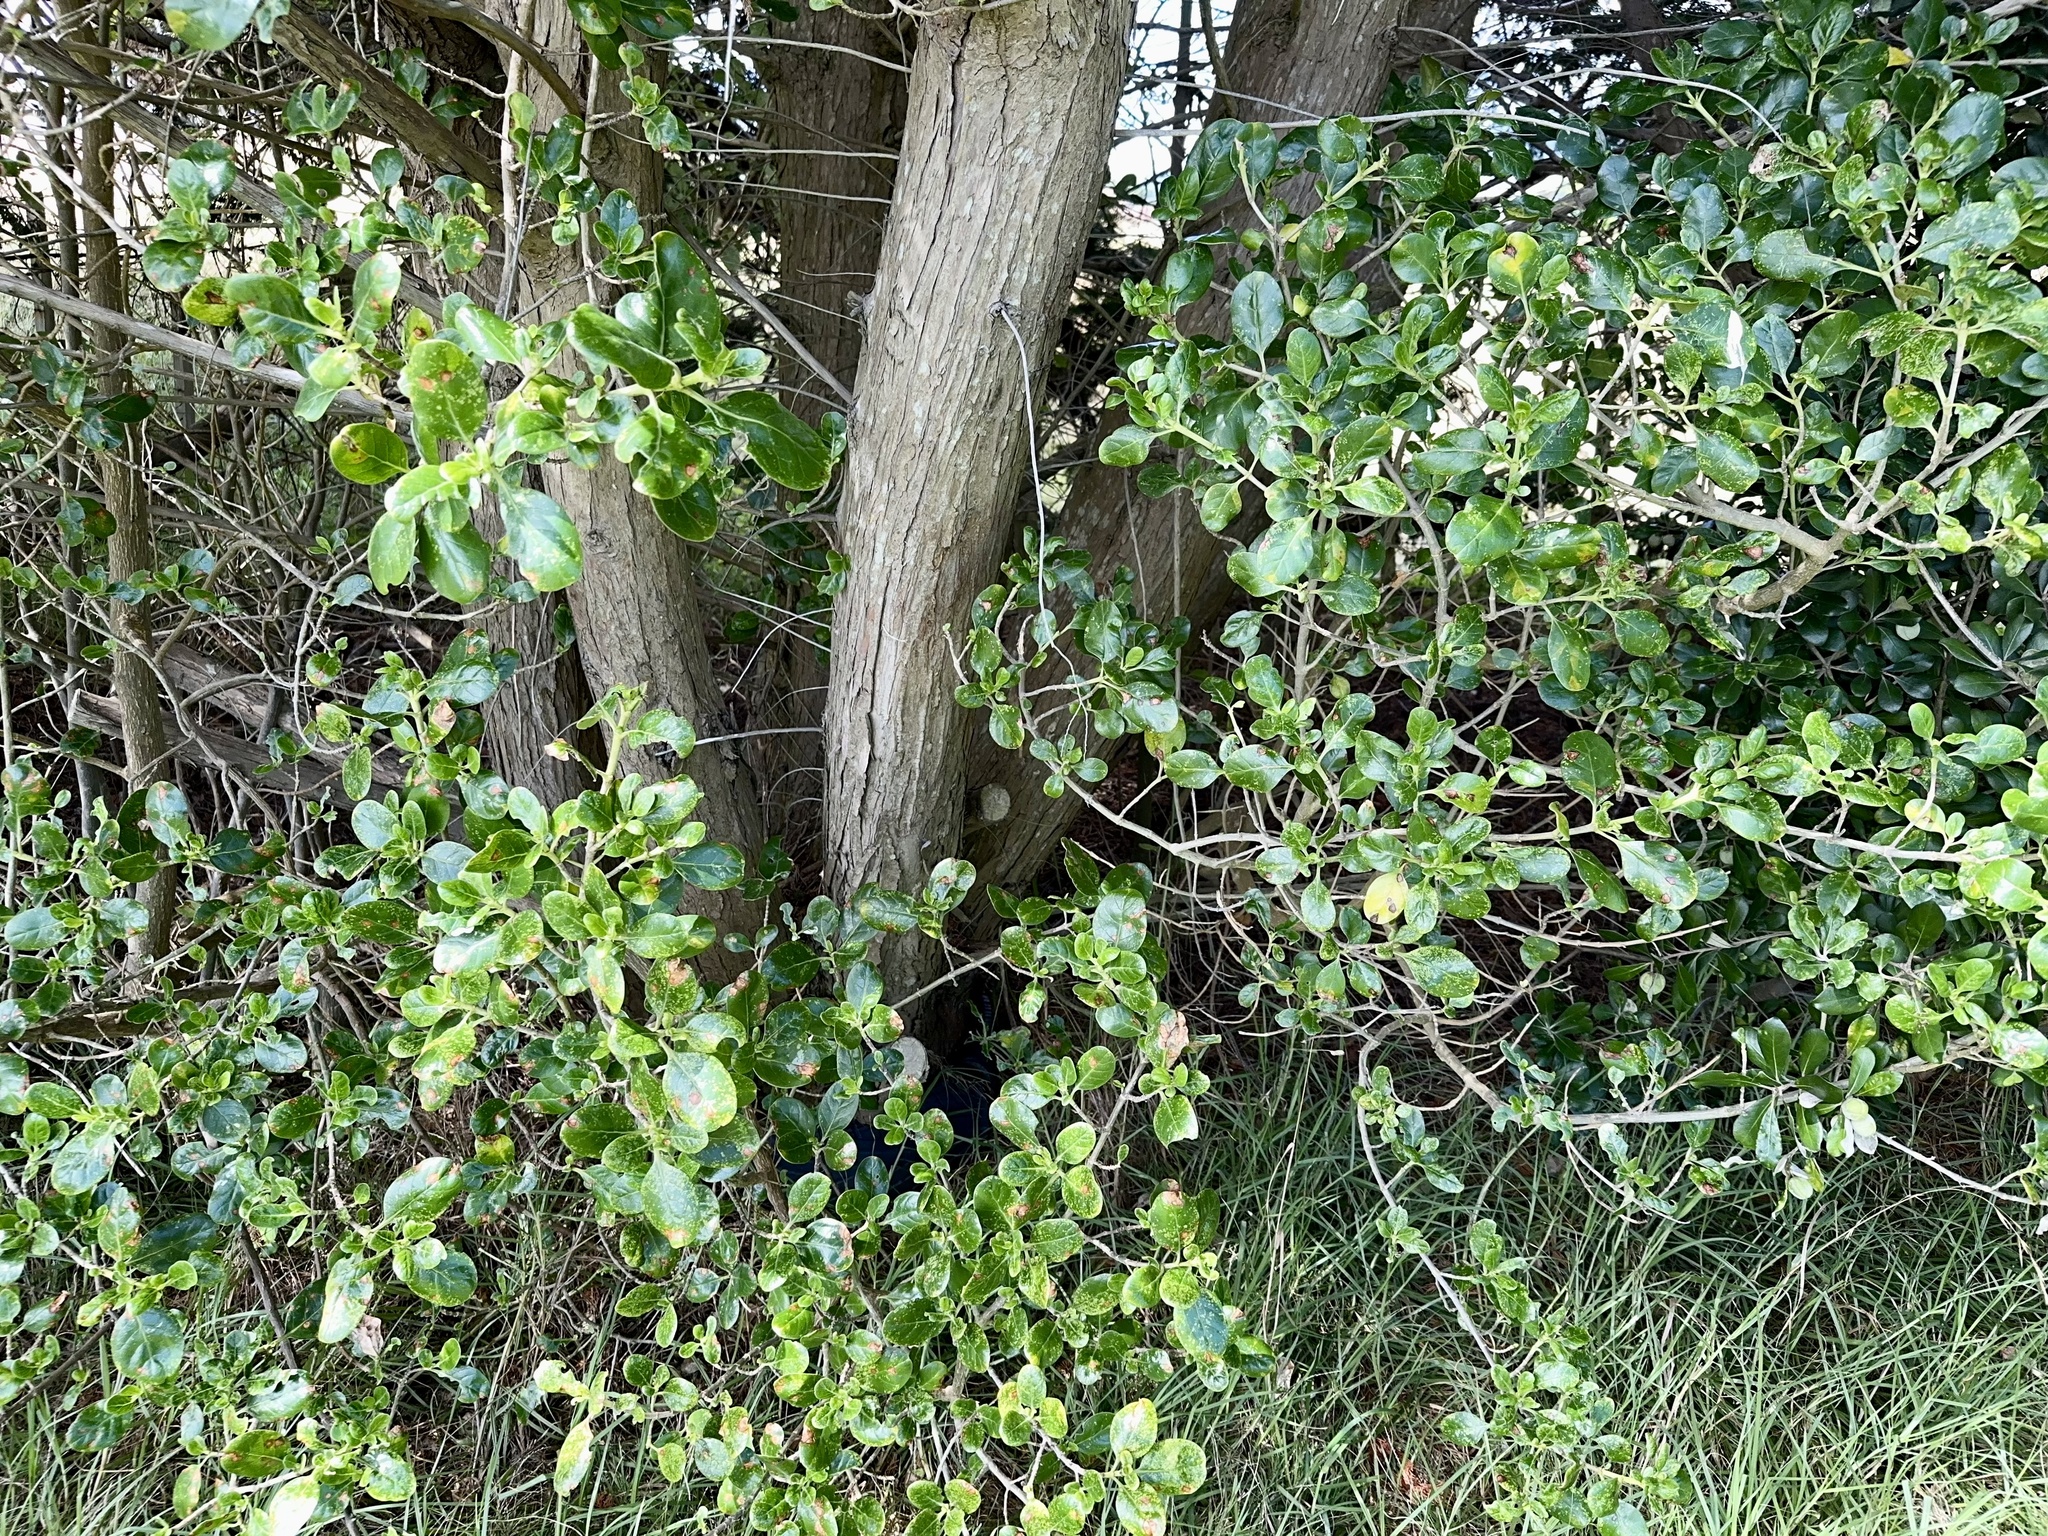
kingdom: Plantae
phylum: Tracheophyta
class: Magnoliopsida
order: Gentianales
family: Rubiaceae
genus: Coprosma
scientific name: Coprosma repens
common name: Tree bedstraw
